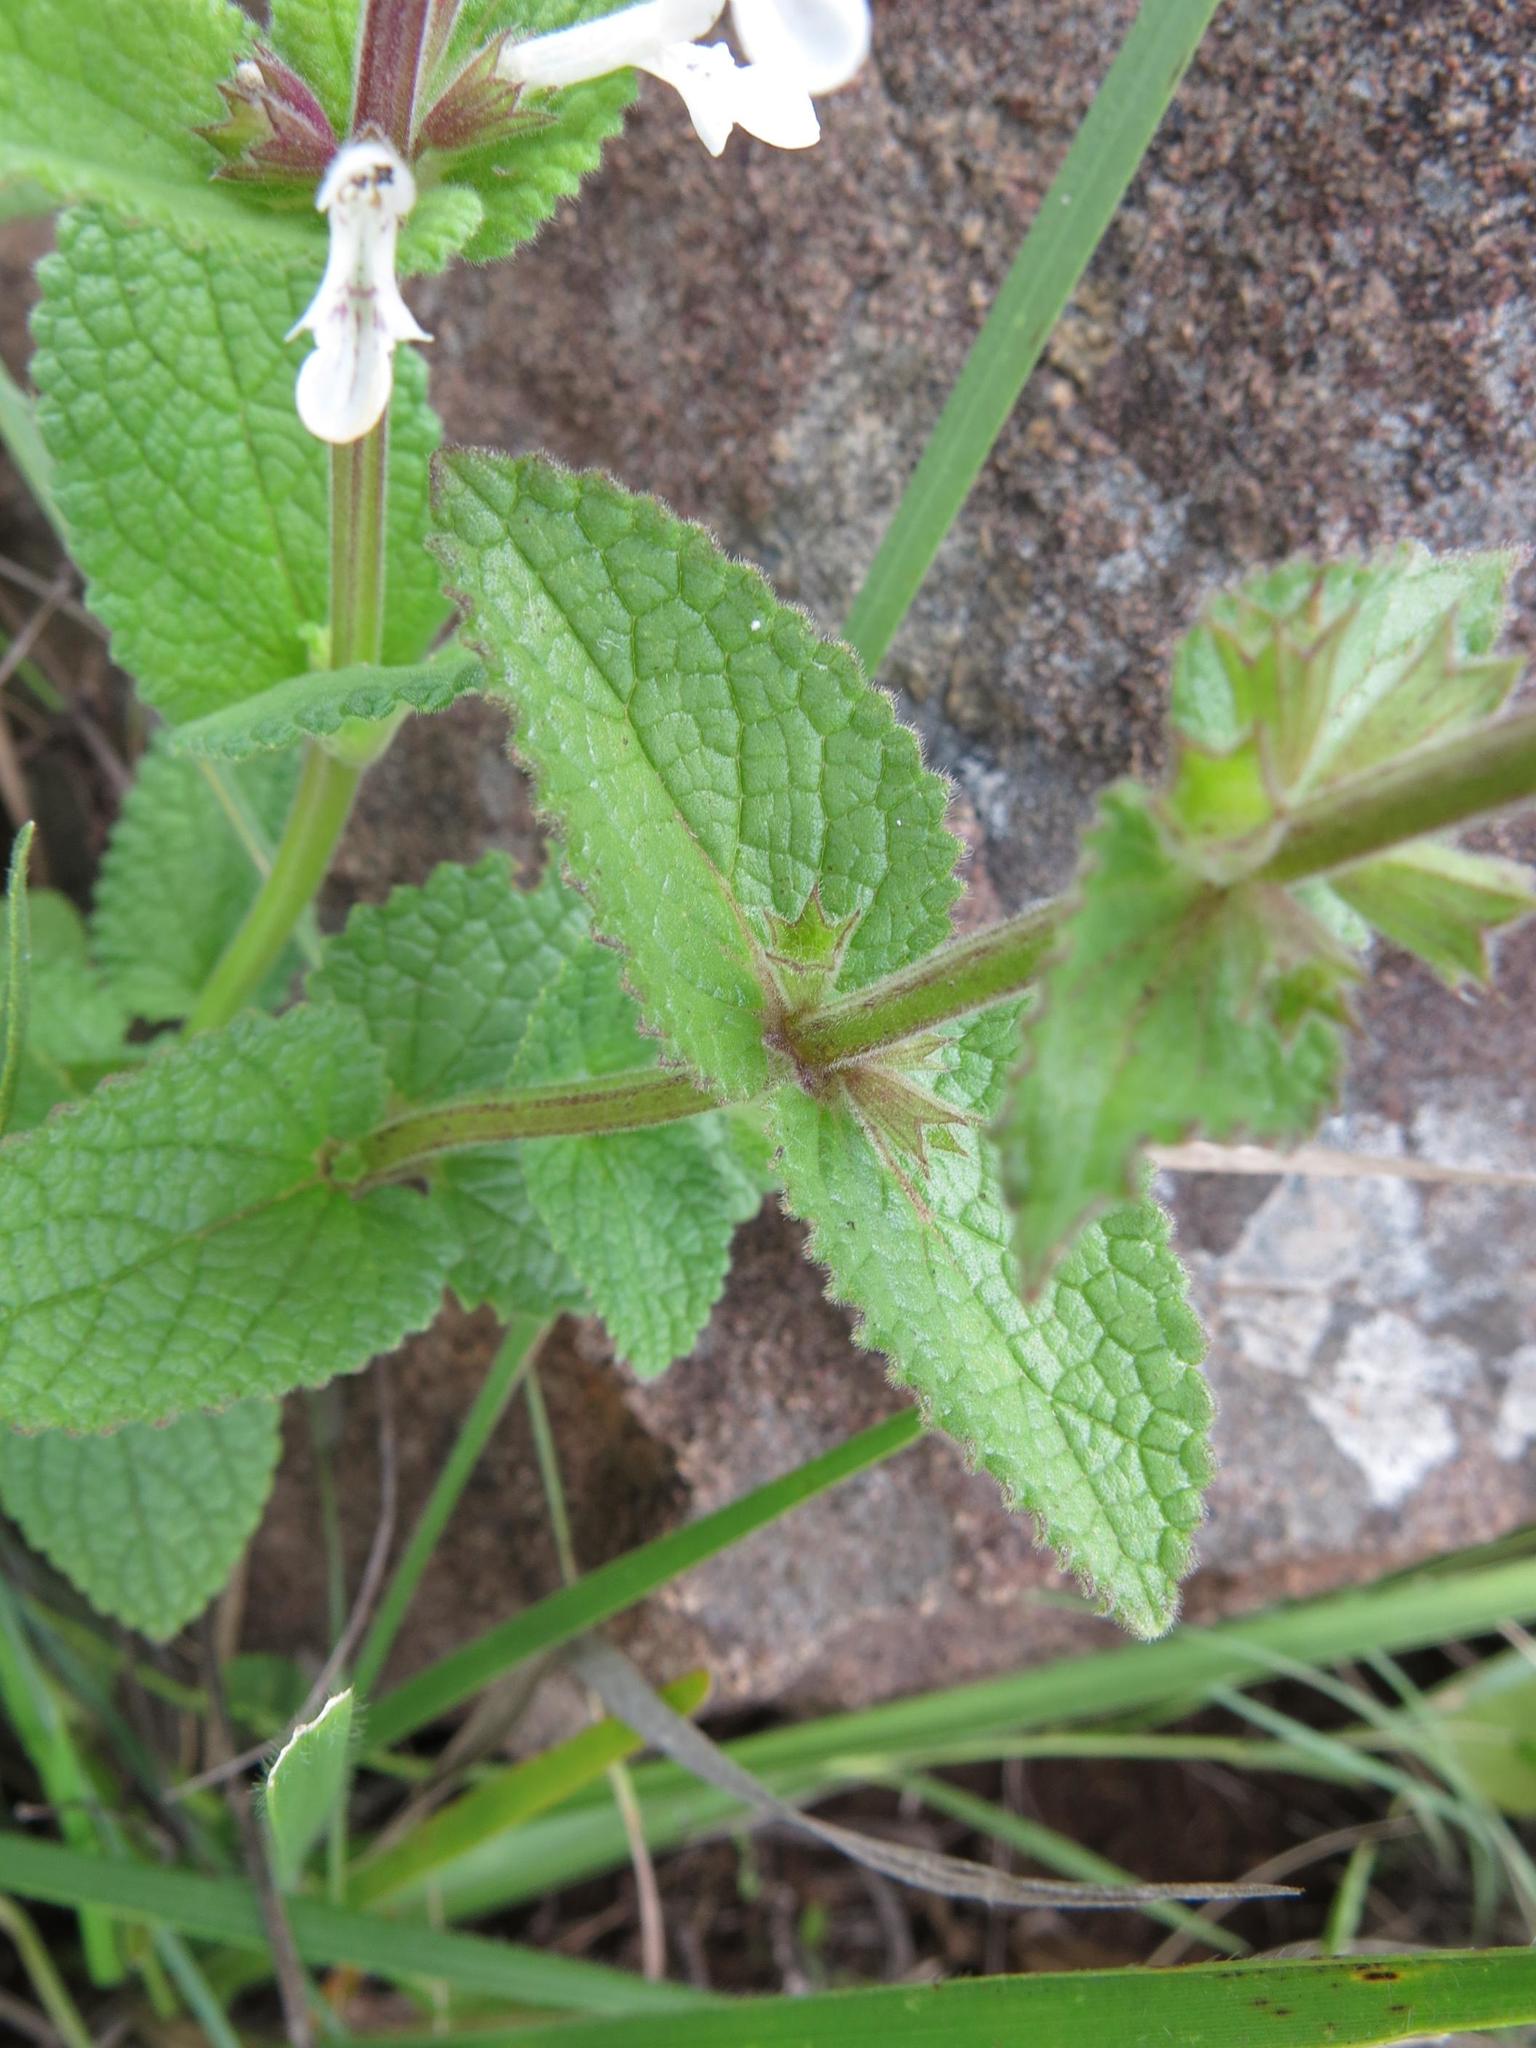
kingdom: Plantae
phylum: Tracheophyta
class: Magnoliopsida
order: Lamiales
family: Lamiaceae
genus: Stachys
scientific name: Stachys kuntzei
